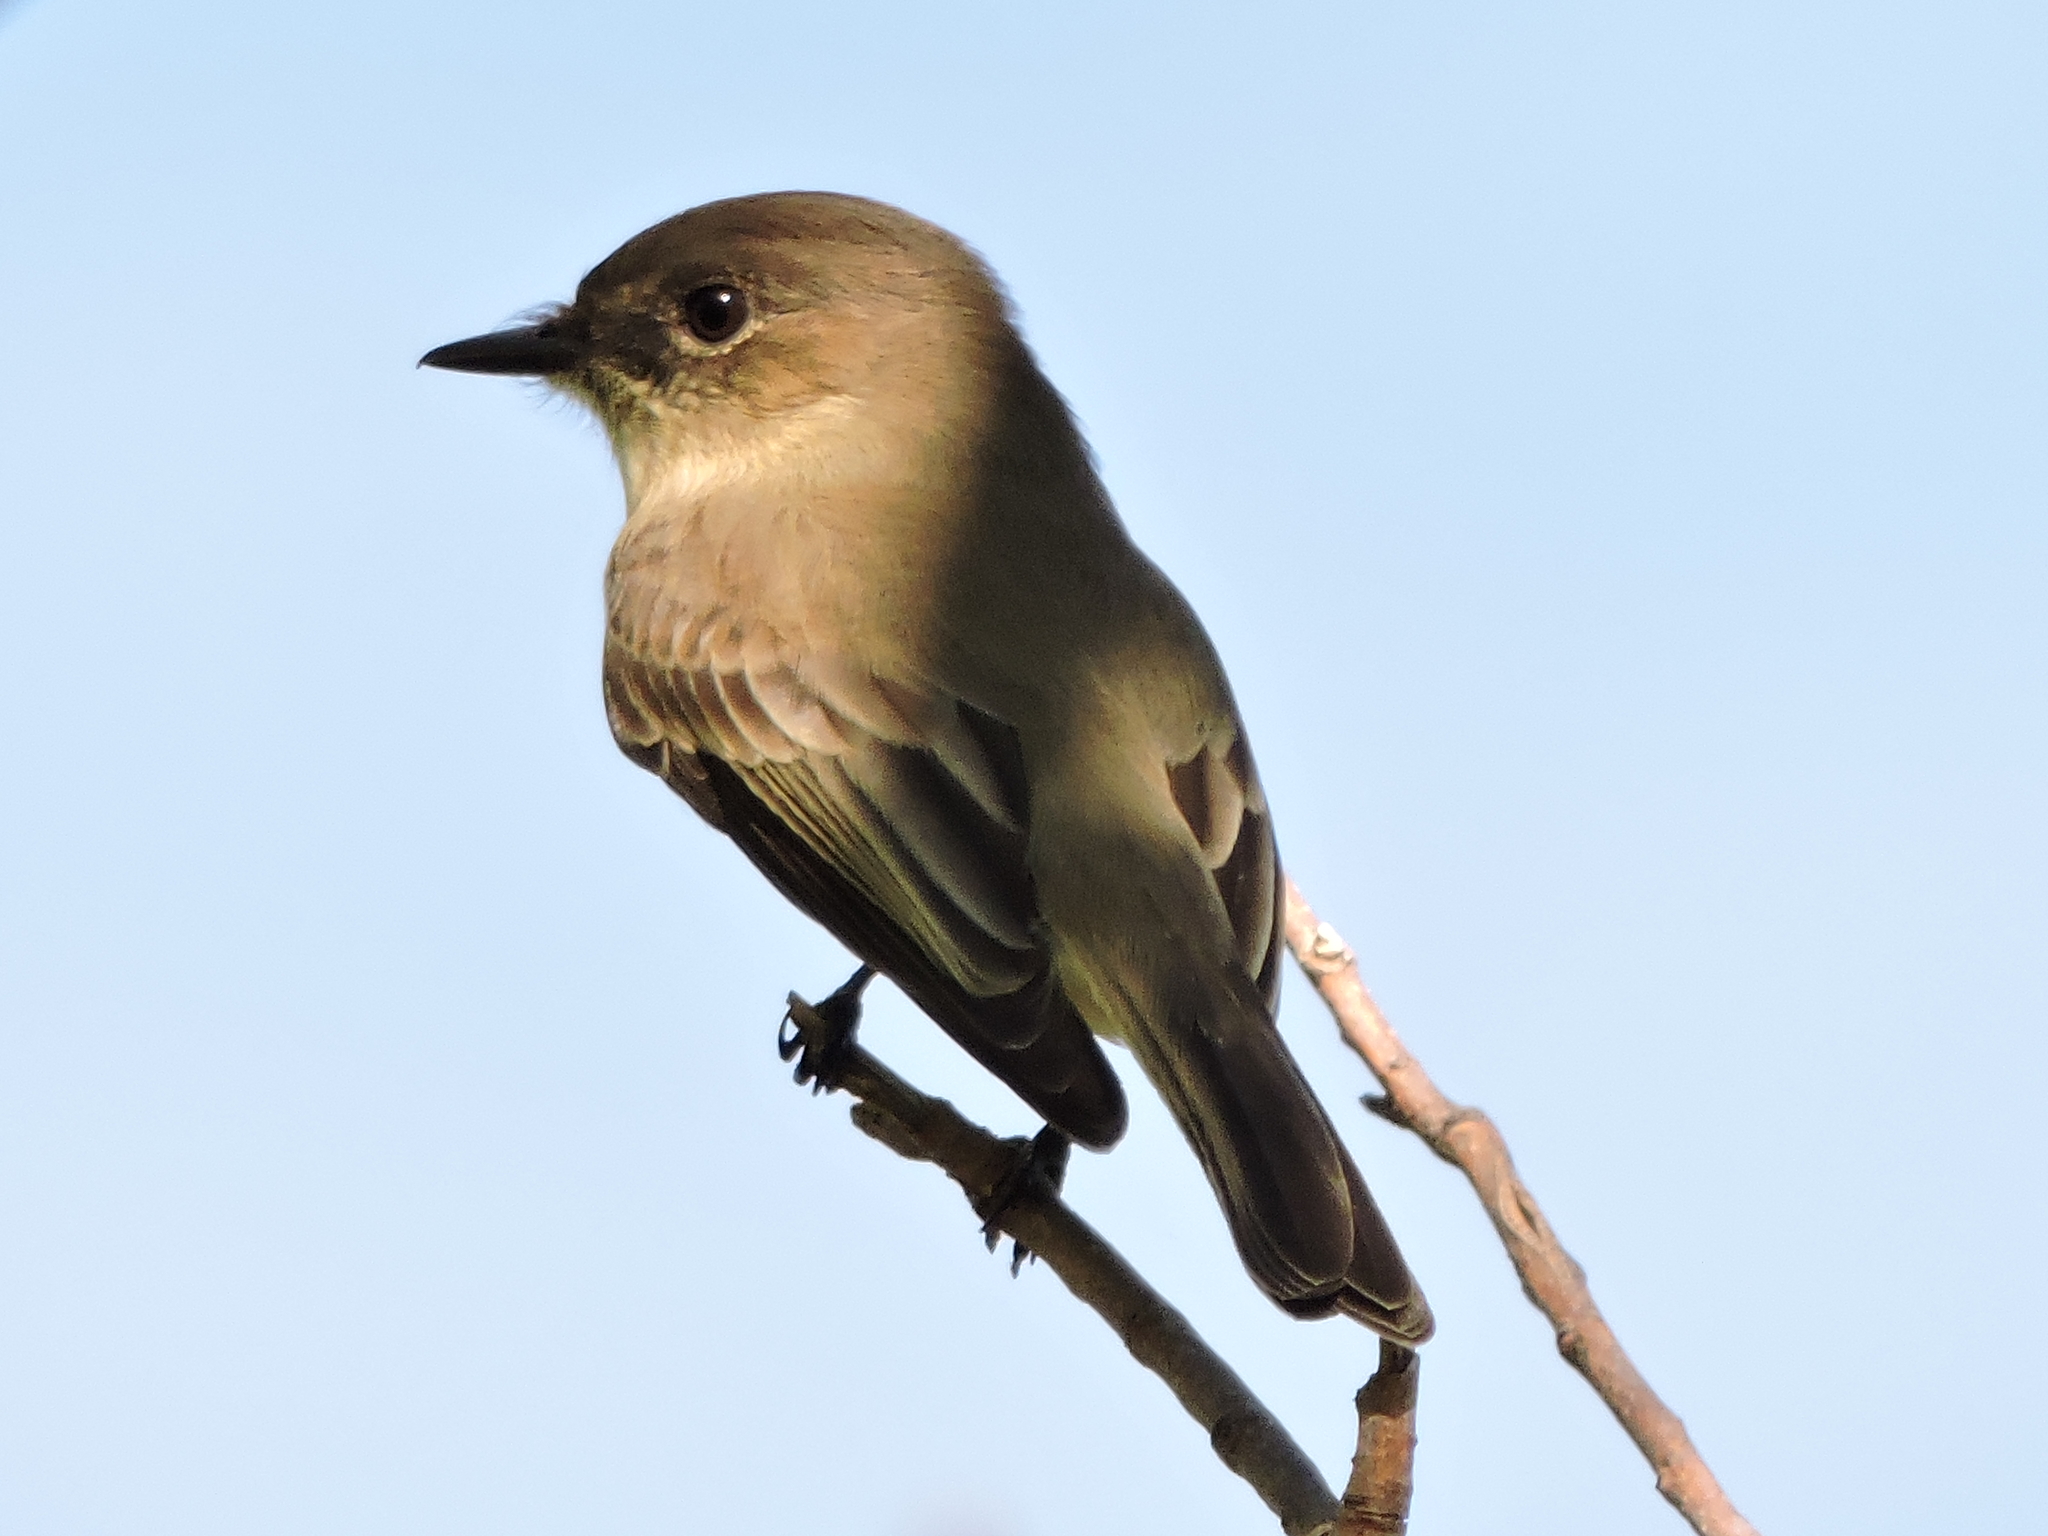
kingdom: Animalia
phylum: Chordata
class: Aves
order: Passeriformes
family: Tyrannidae
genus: Sayornis
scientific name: Sayornis phoebe
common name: Eastern phoebe
